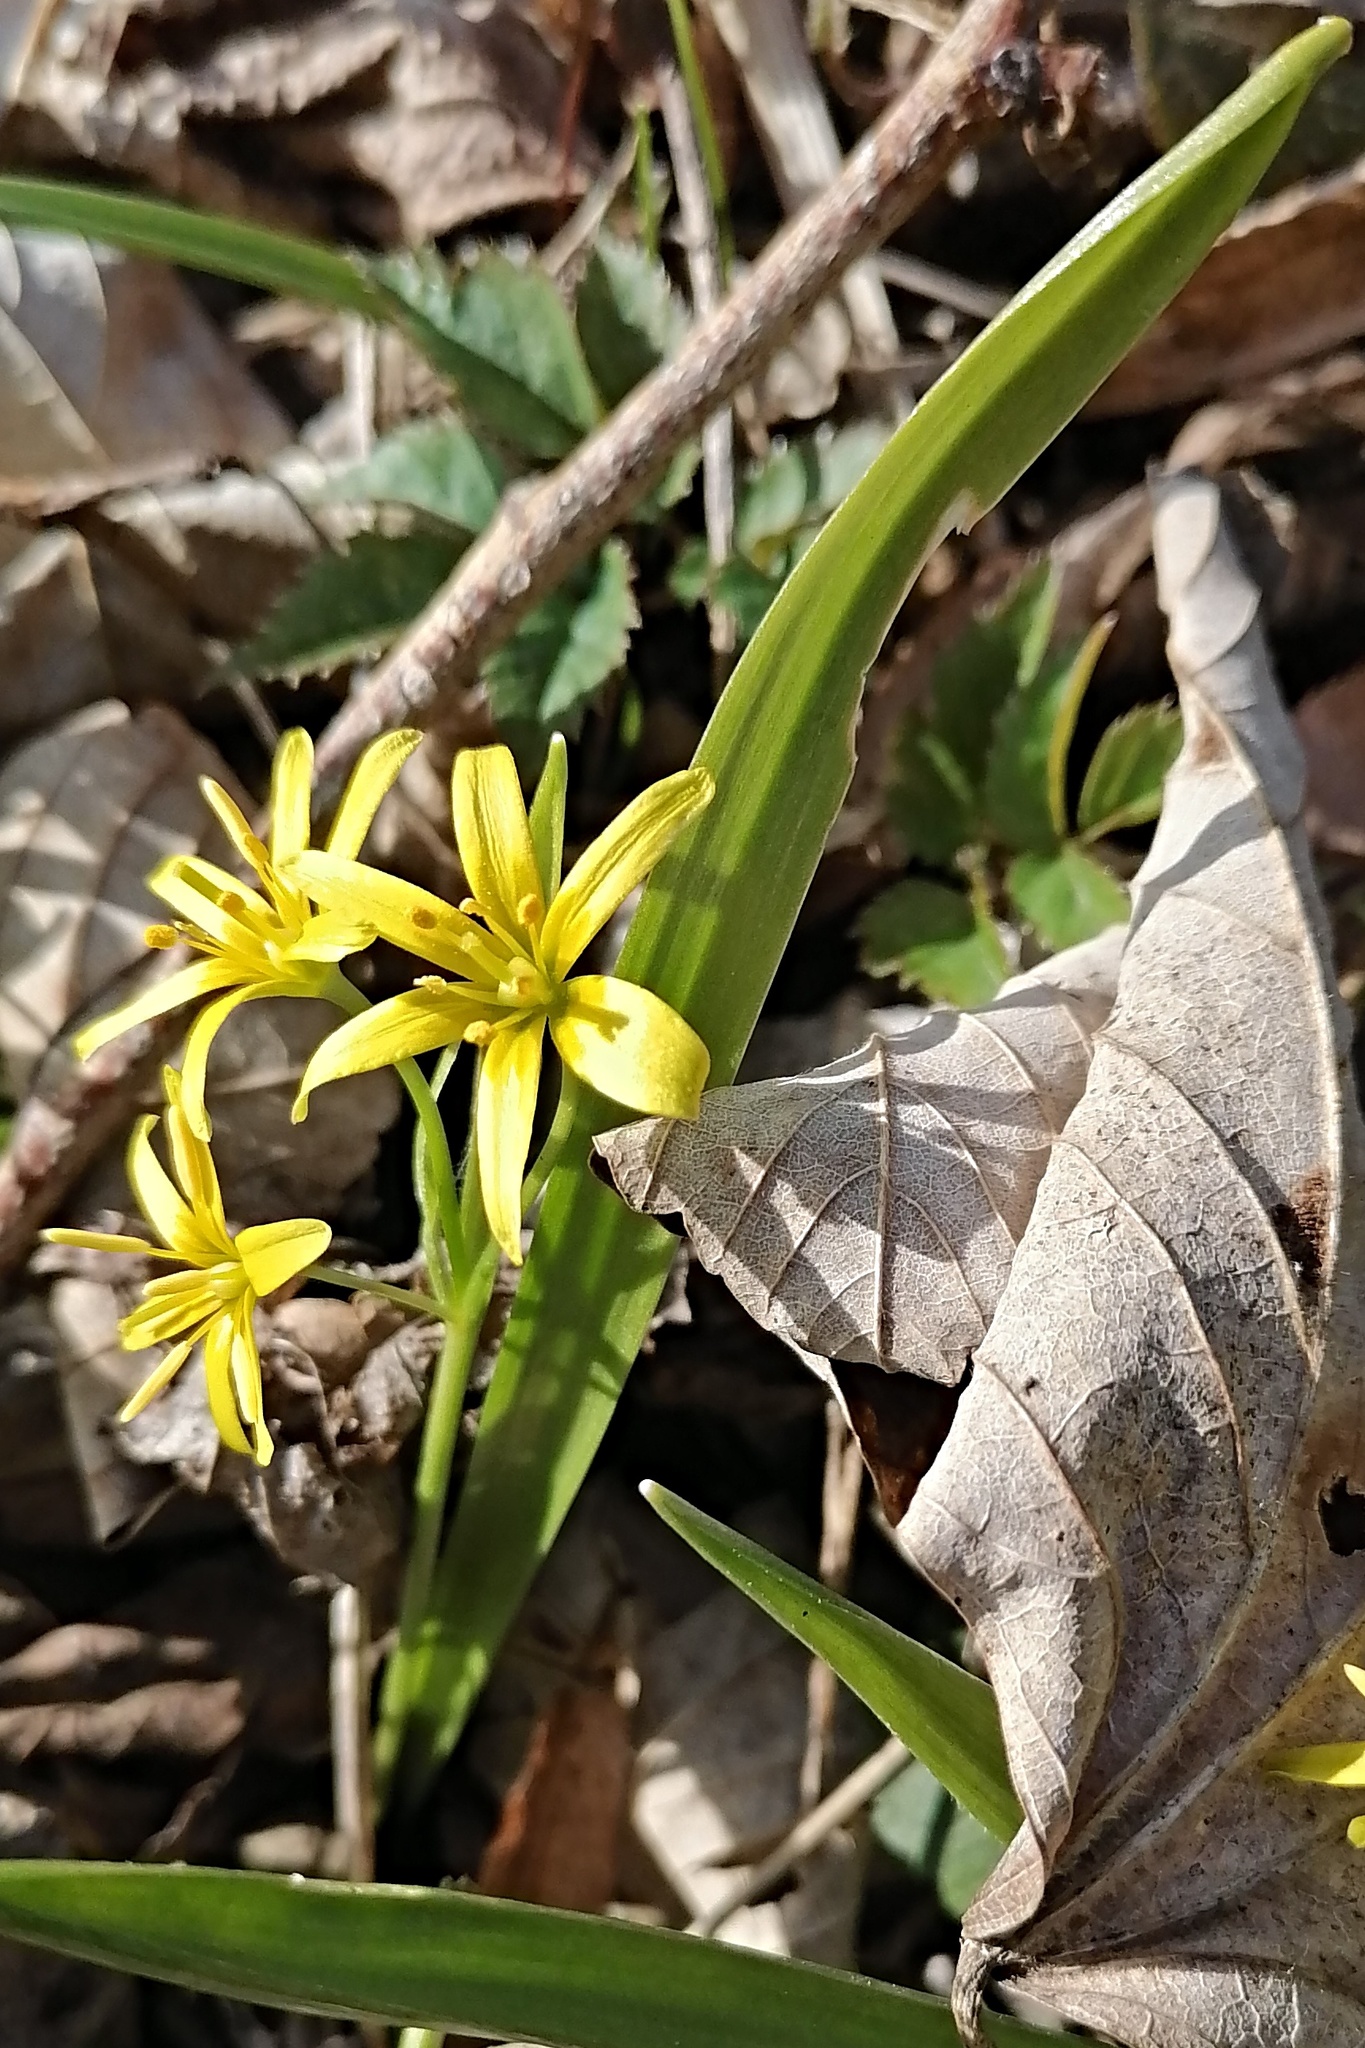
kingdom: Plantae
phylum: Tracheophyta
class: Liliopsida
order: Liliales
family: Liliaceae
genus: Gagea
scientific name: Gagea lutea
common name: Yellow star-of-bethlehem
